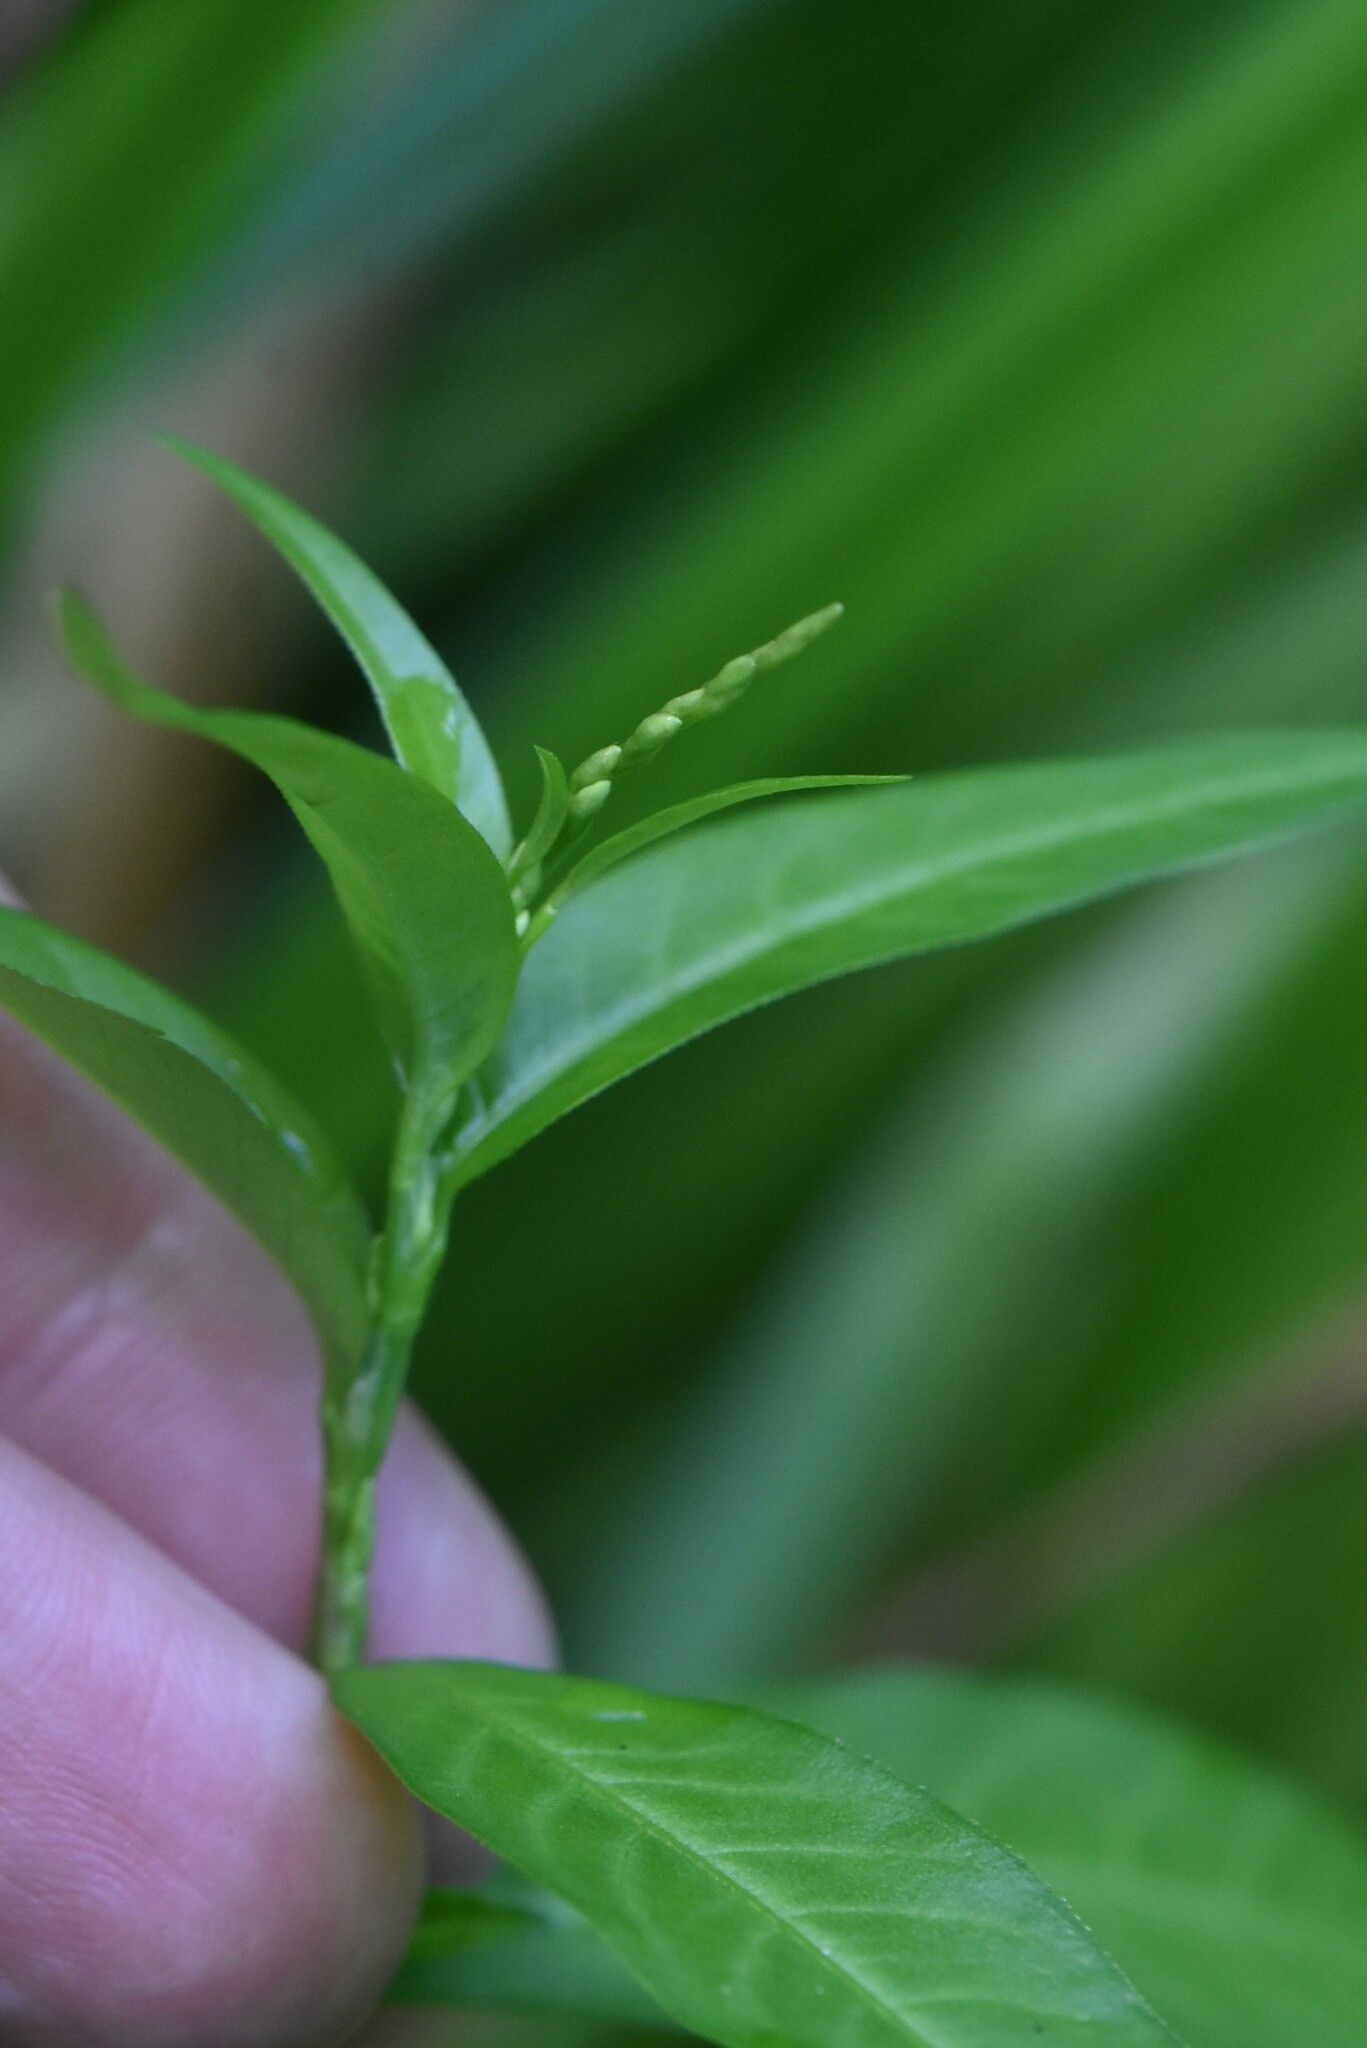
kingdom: Plantae
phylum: Tracheophyta
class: Magnoliopsida
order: Caryophyllales
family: Polygonaceae
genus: Persicaria
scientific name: Persicaria hydropiper
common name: Water-pepper
